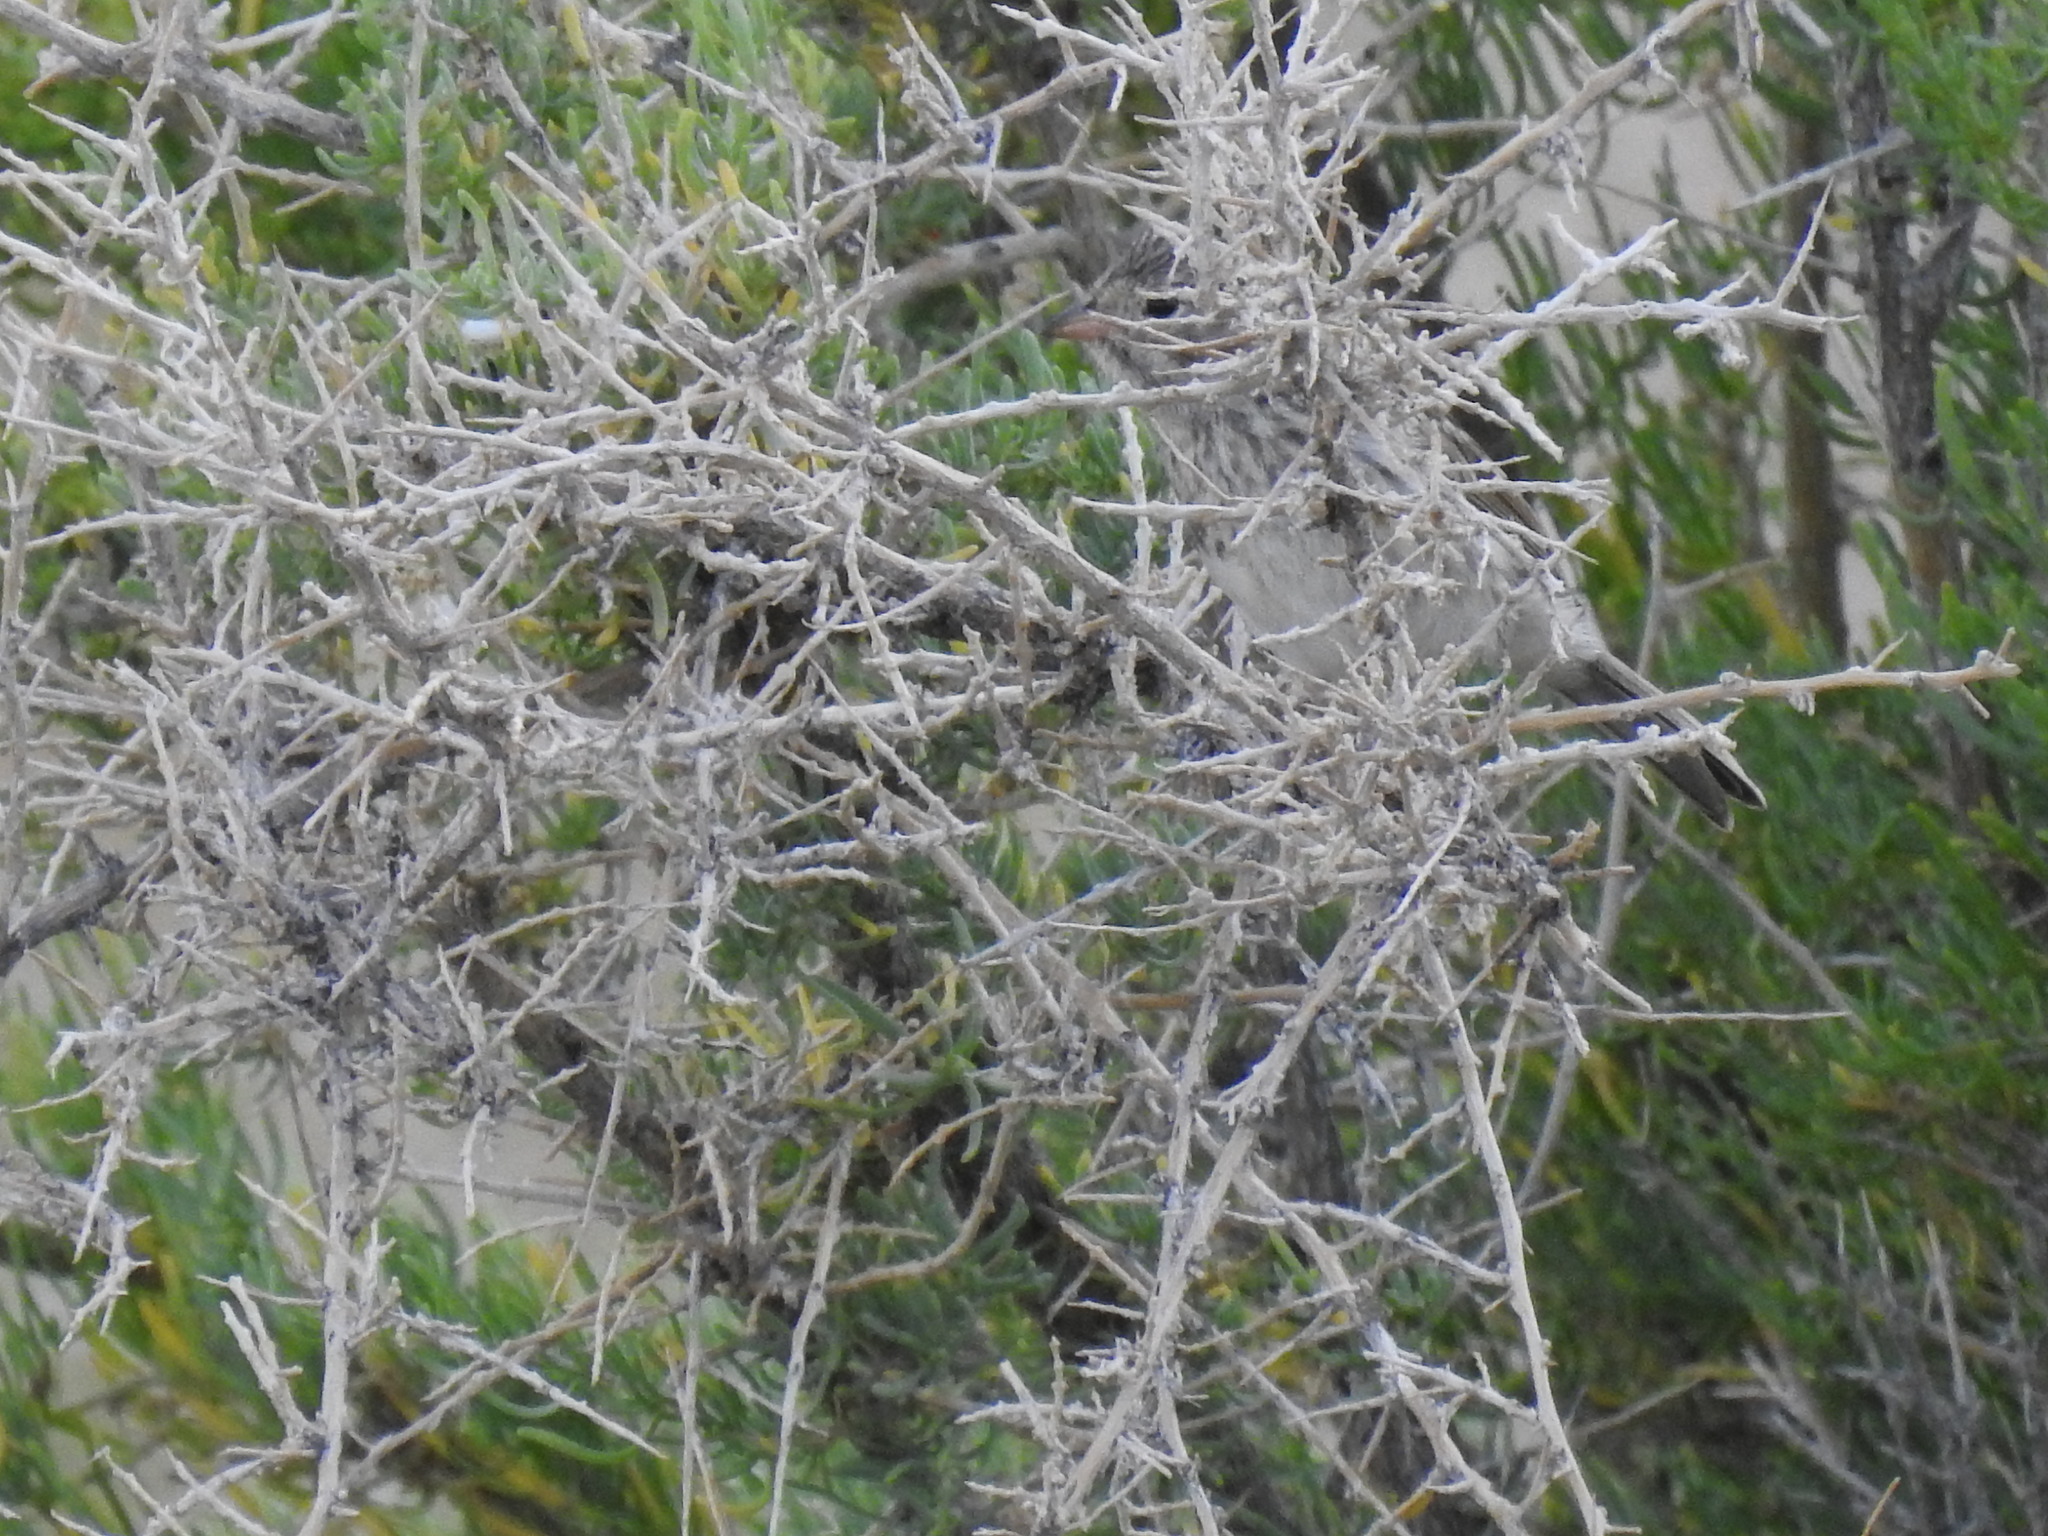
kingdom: Animalia
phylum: Chordata
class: Aves
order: Passeriformes
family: Passerellidae
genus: Spizella
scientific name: Spizella breweri
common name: Brewer's sparrow
